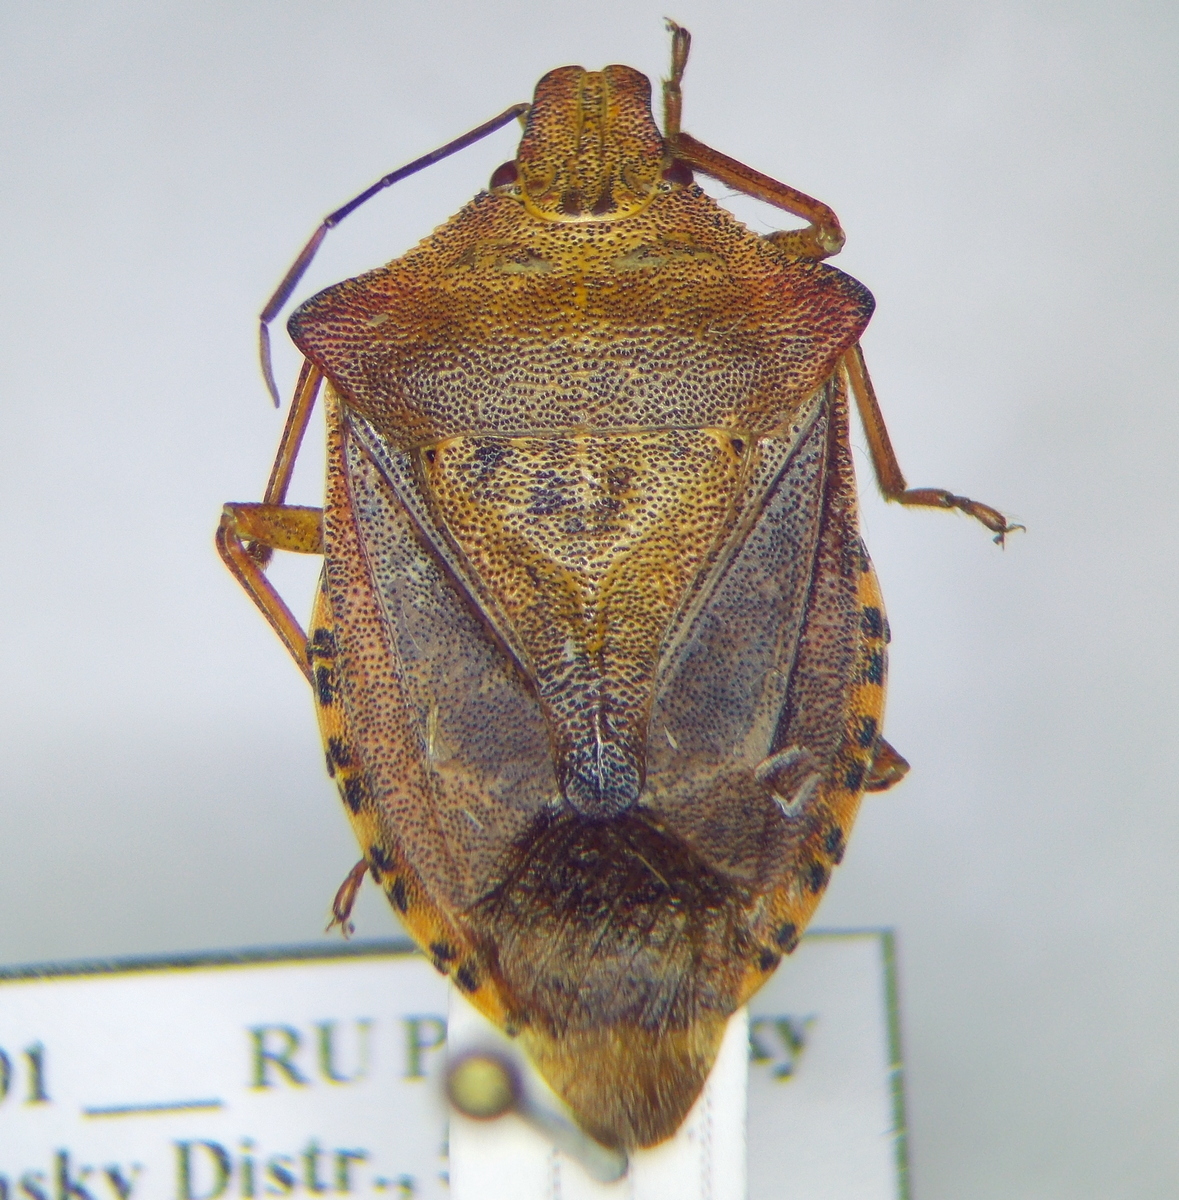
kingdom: Animalia
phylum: Arthropoda
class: Insecta
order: Hemiptera
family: Pentatomidae
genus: Arma
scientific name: Arma custos
